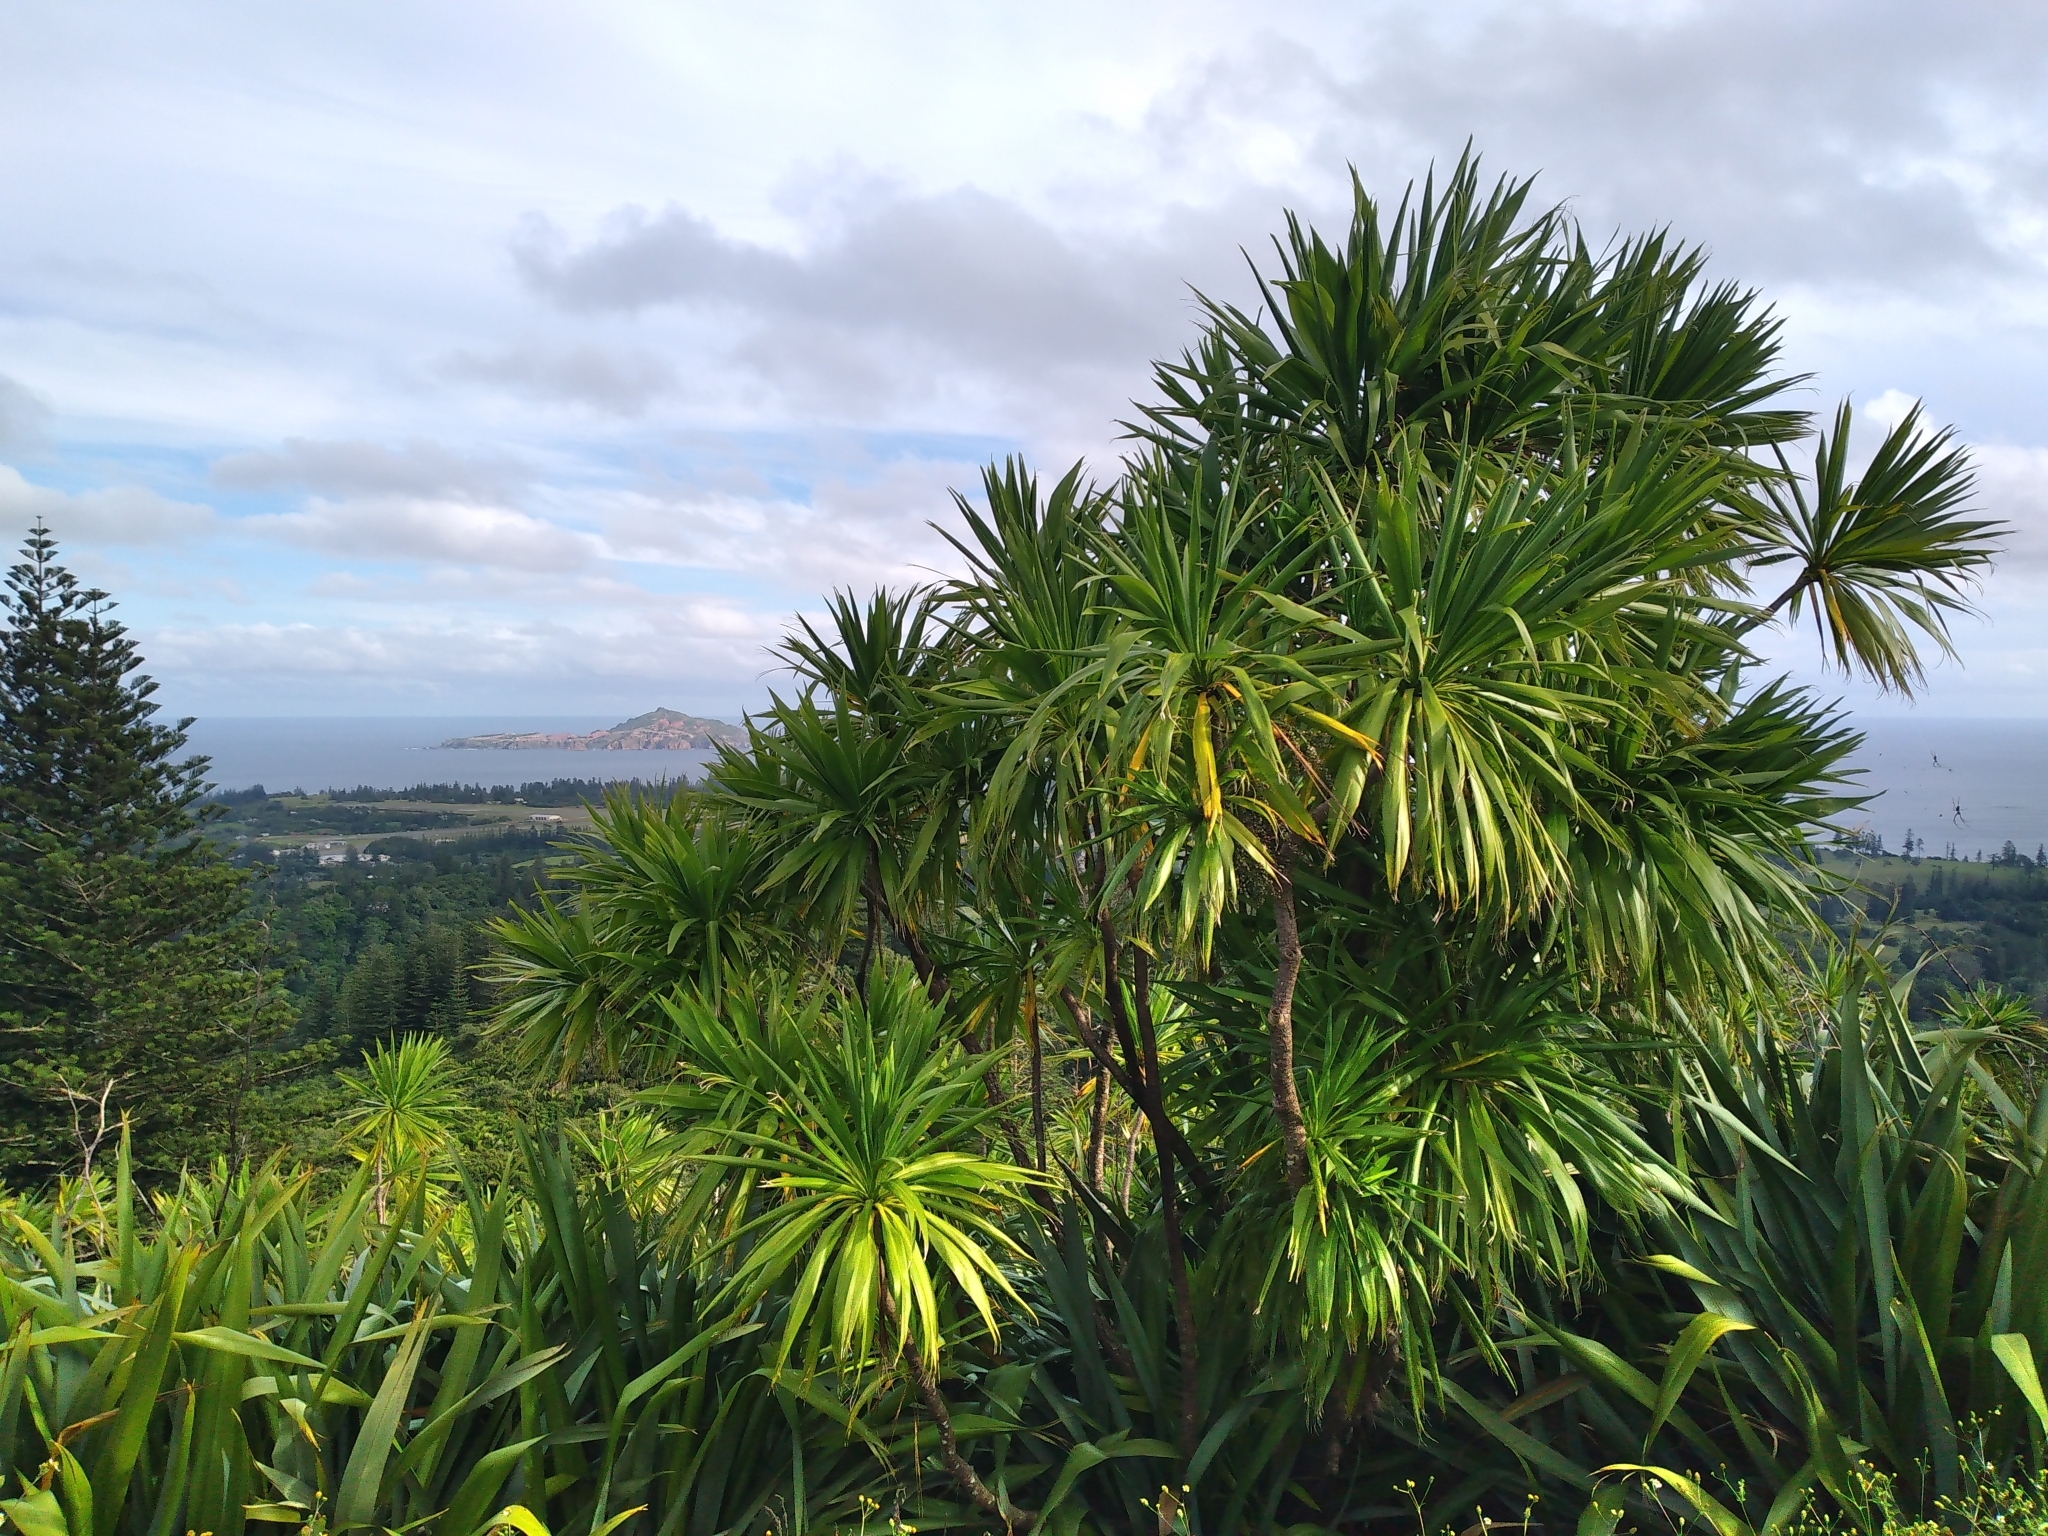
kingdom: Plantae
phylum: Tracheophyta
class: Liliopsida
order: Asparagales
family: Asparagaceae
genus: Cordyline
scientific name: Cordyline obtecta
